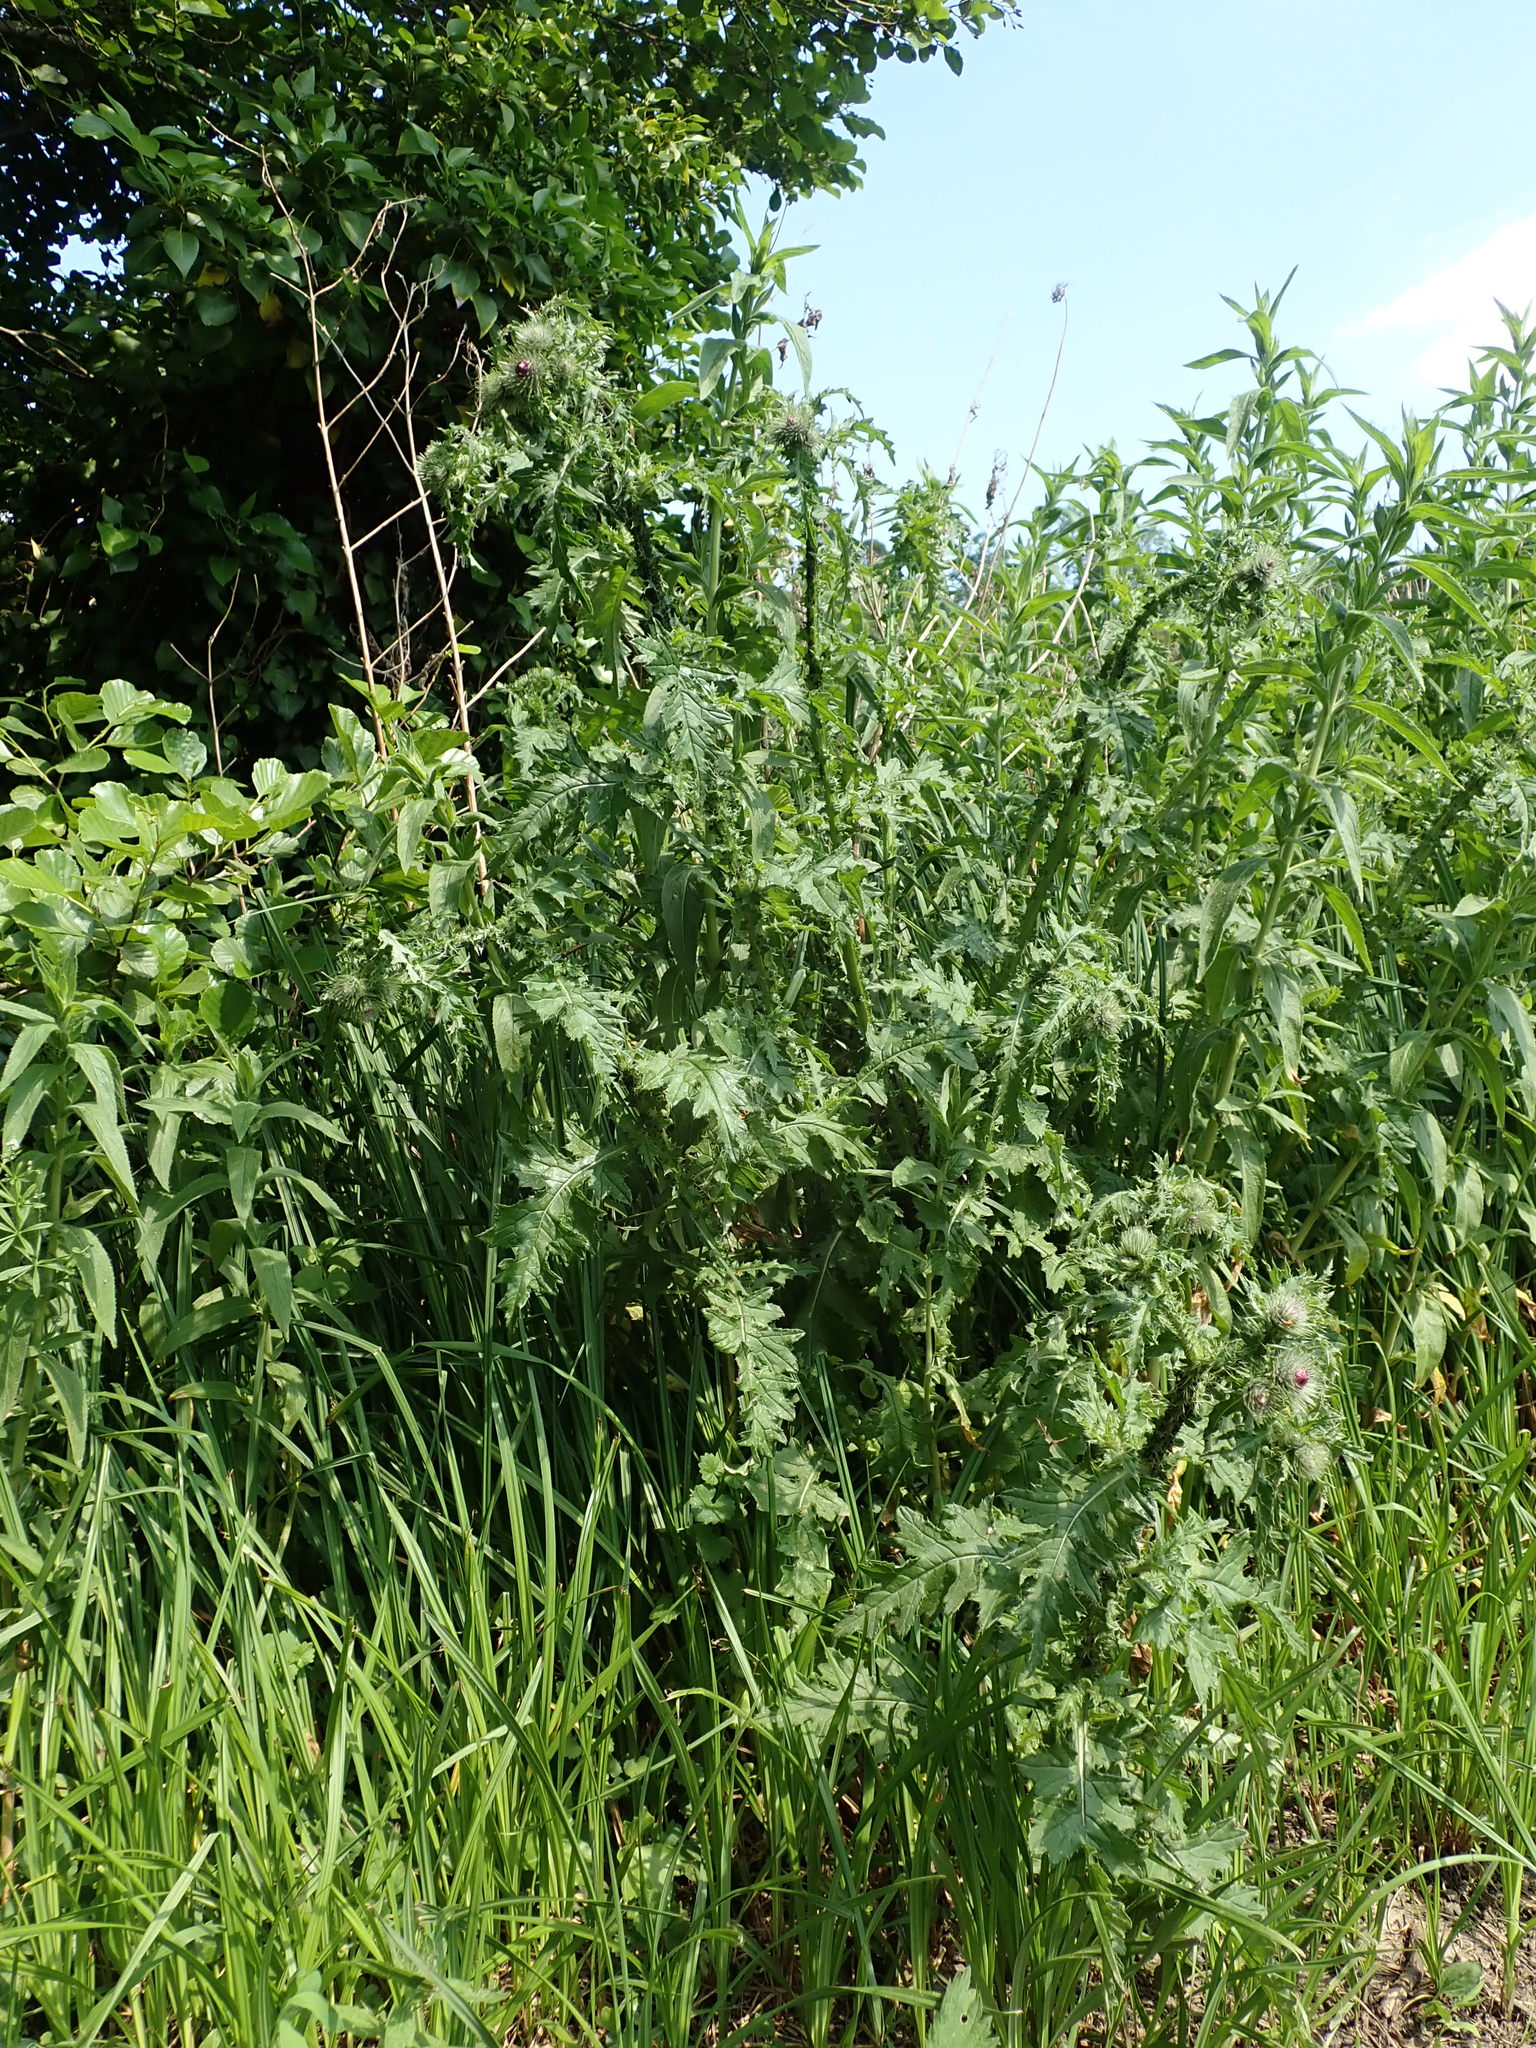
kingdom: Plantae
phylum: Tracheophyta
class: Magnoliopsida
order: Asterales
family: Asteraceae
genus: Carduus
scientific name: Carduus crispus
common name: Welted thistle
